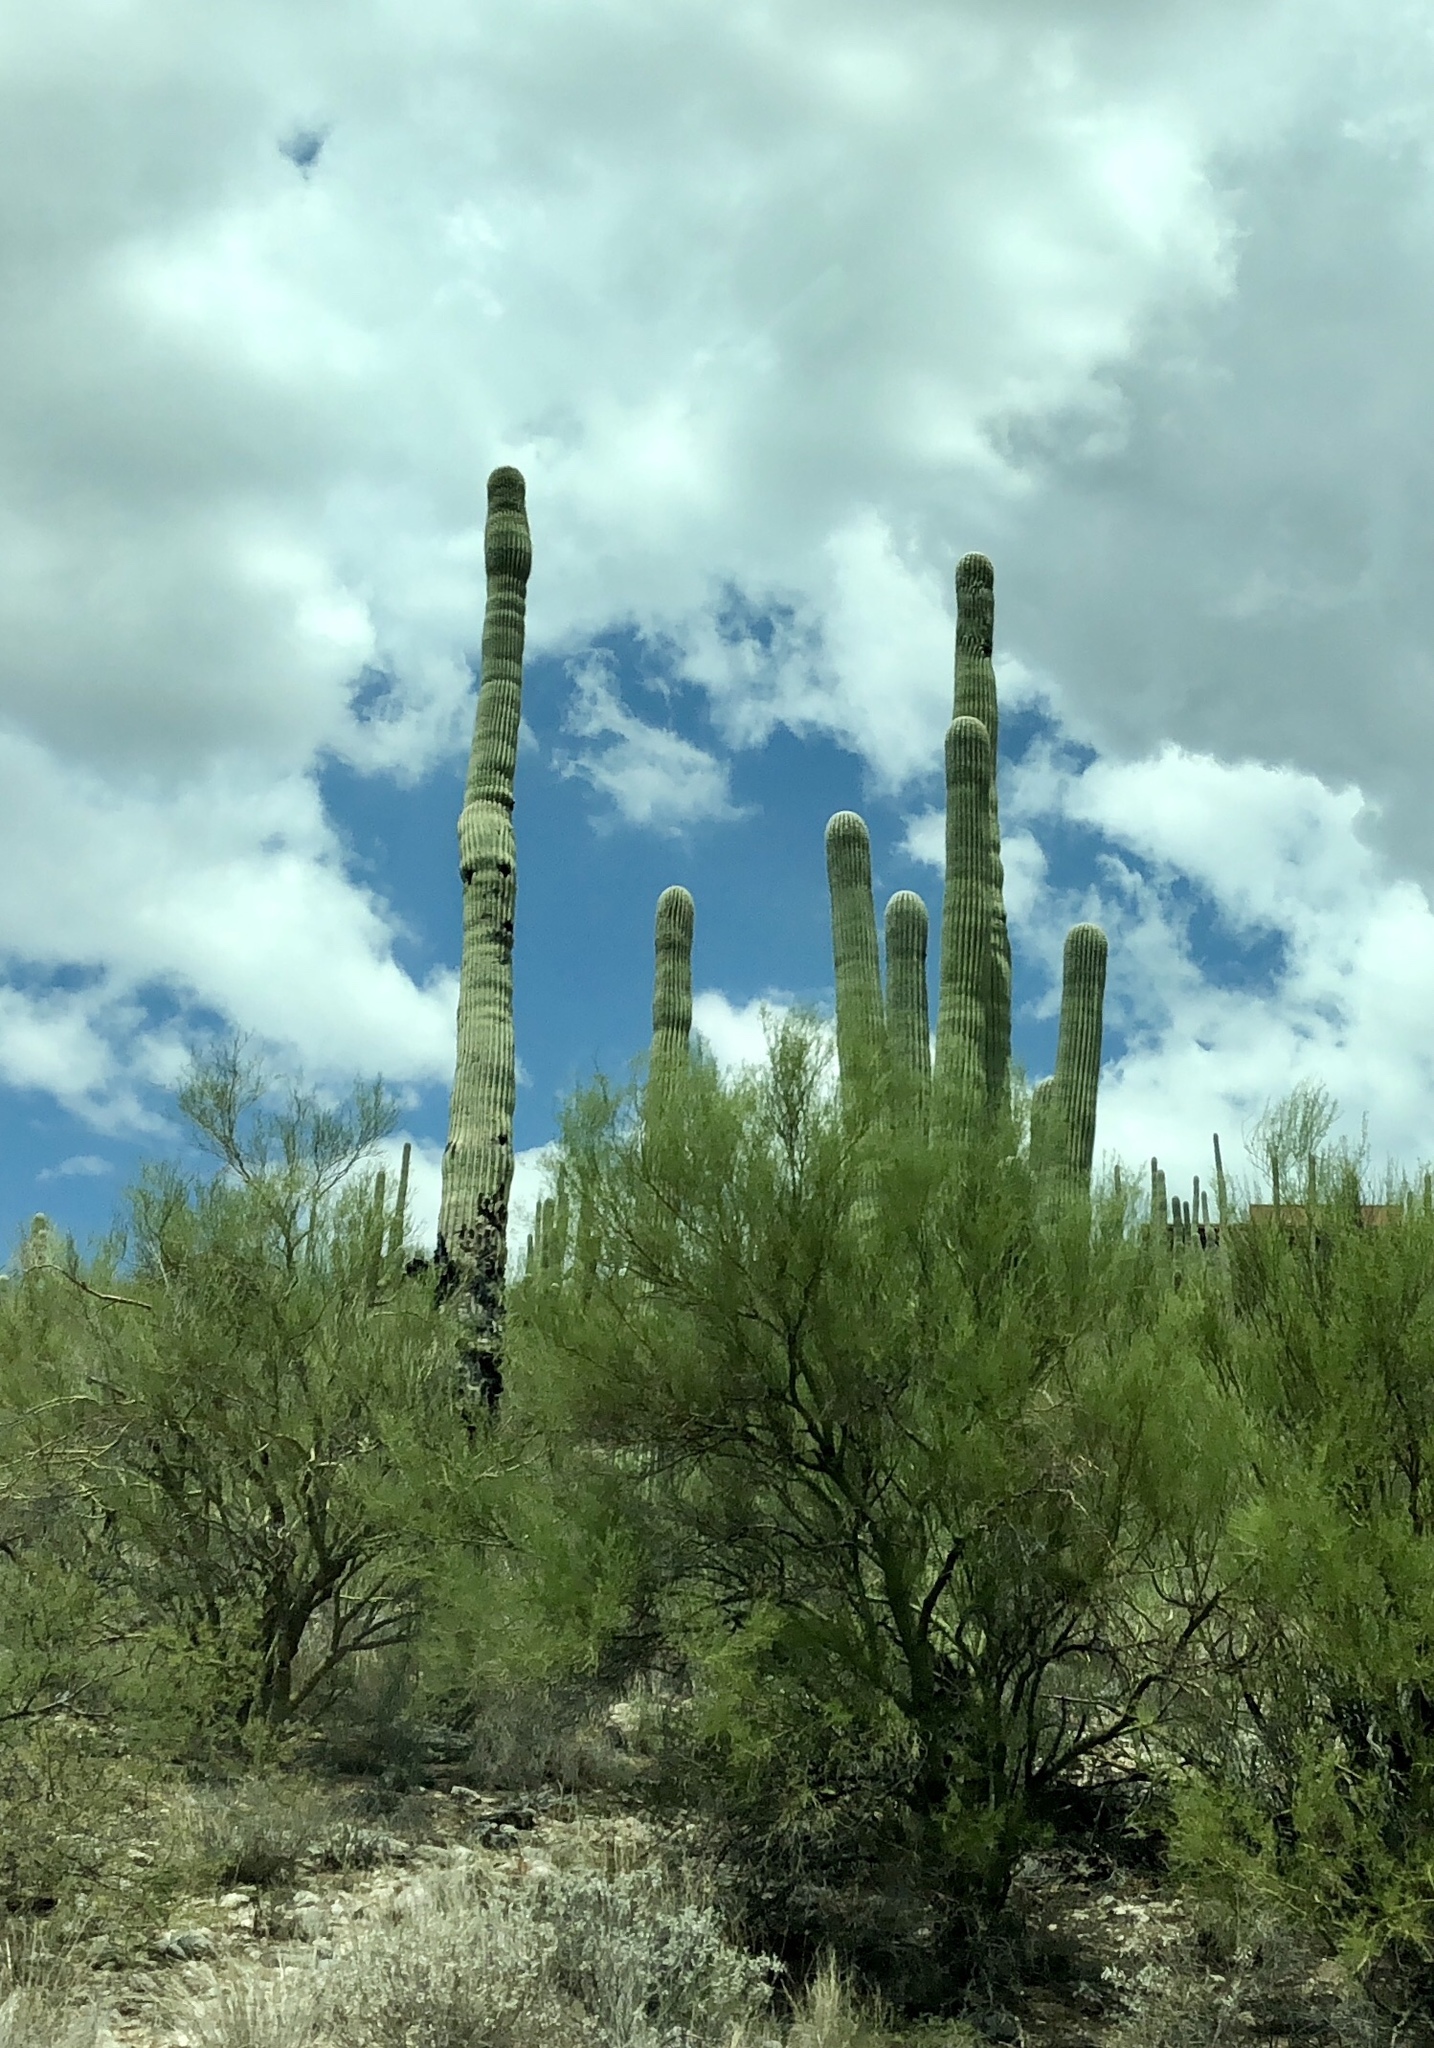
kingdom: Plantae
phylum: Tracheophyta
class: Magnoliopsida
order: Caryophyllales
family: Cactaceae
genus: Carnegiea
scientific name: Carnegiea gigantea
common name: Saguaro
